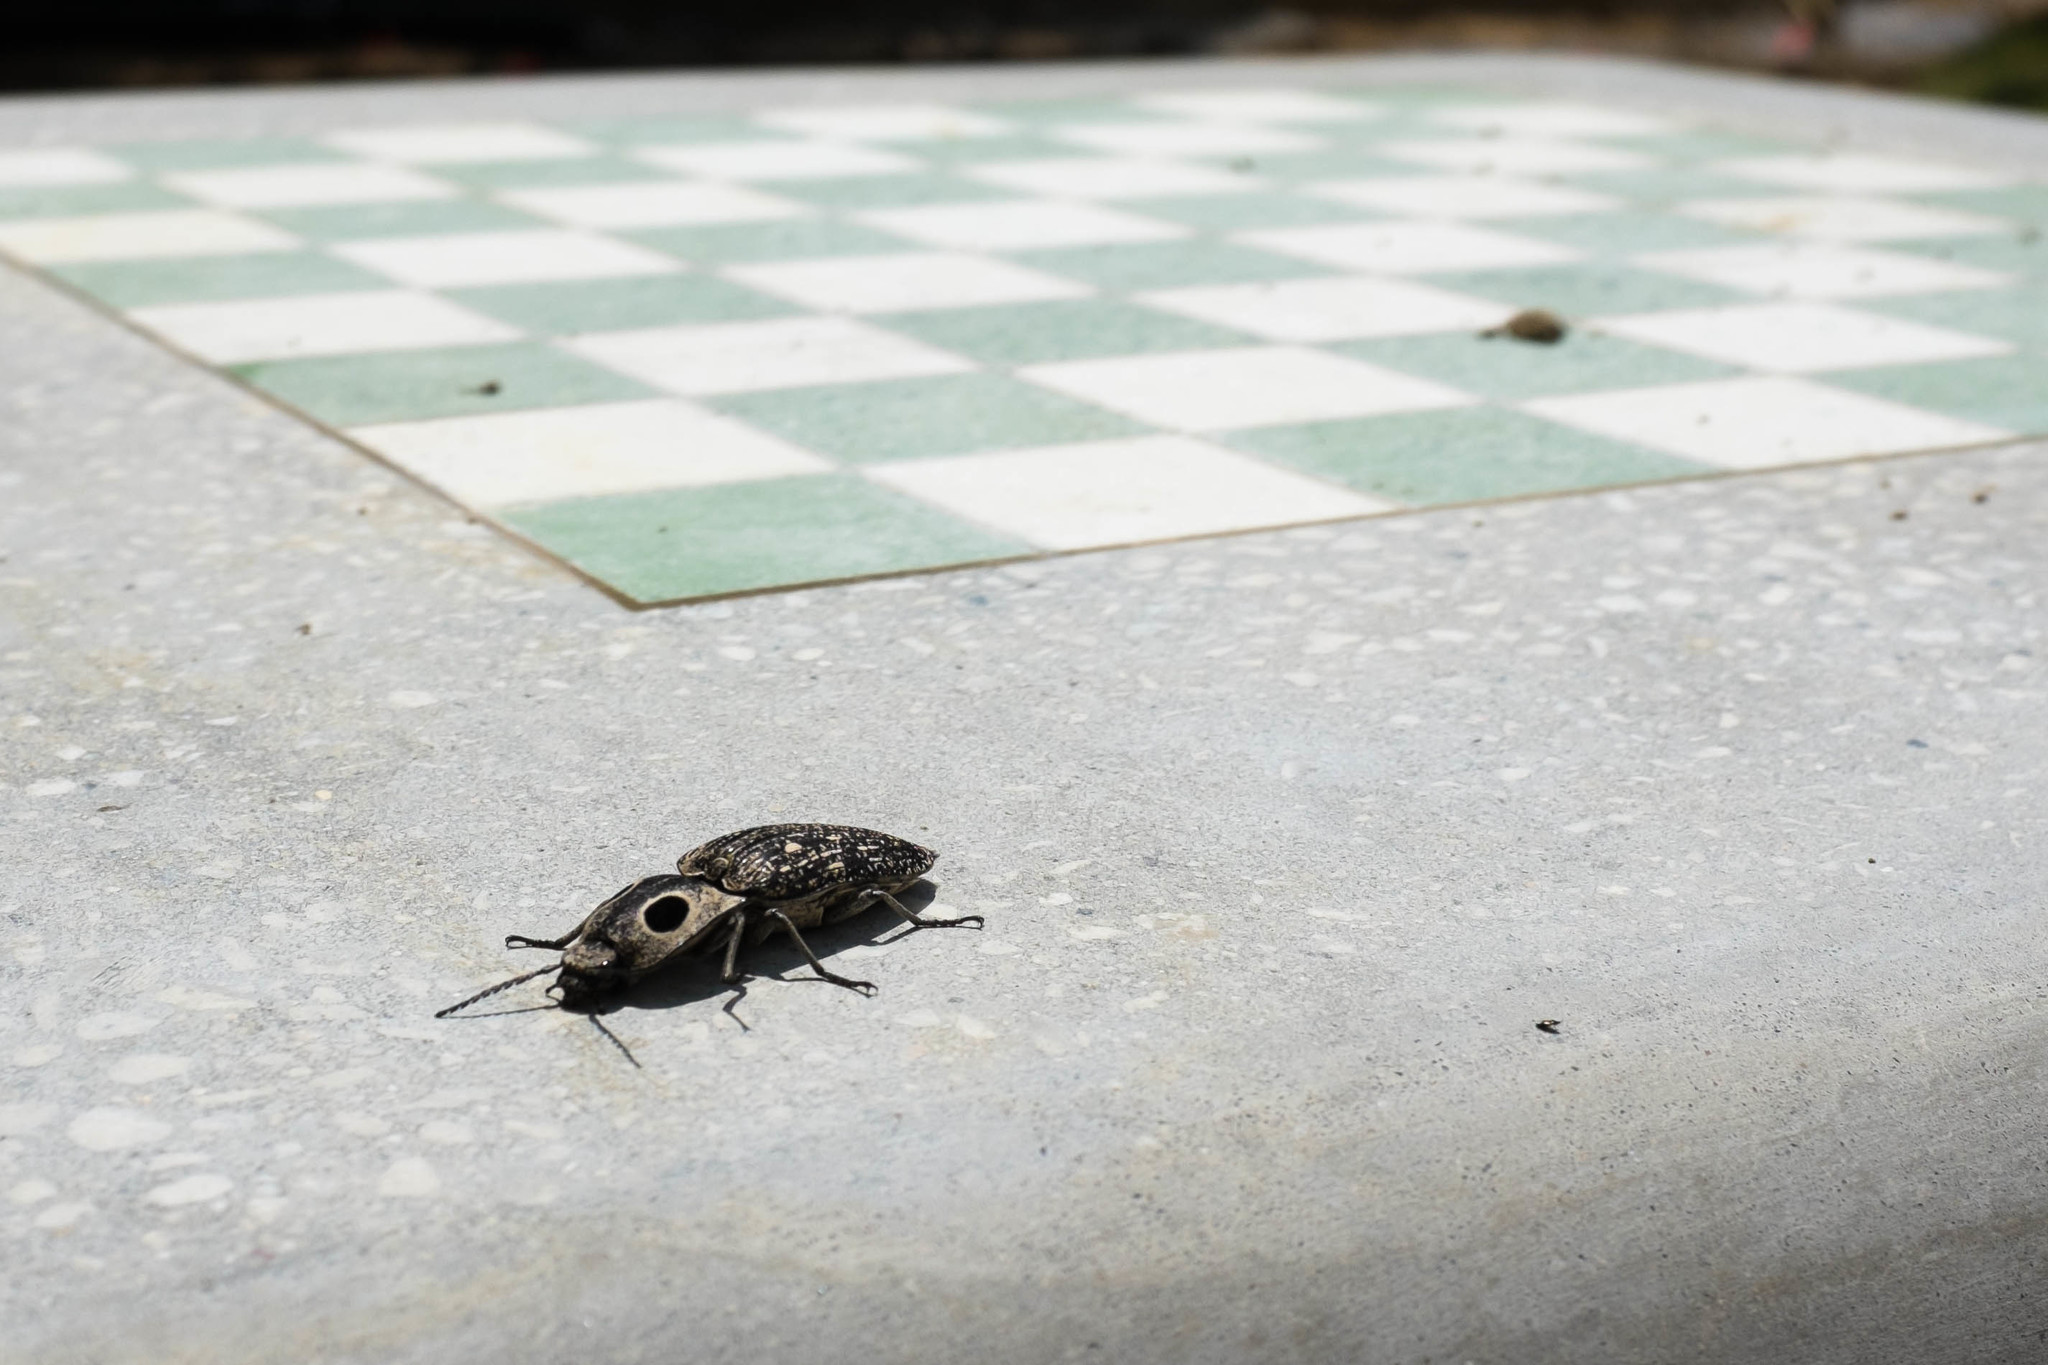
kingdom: Animalia
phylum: Arthropoda
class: Insecta
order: Coleoptera
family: Elateridae
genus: Alaus
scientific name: Alaus oculatus
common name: Eastern eyed click beetle
